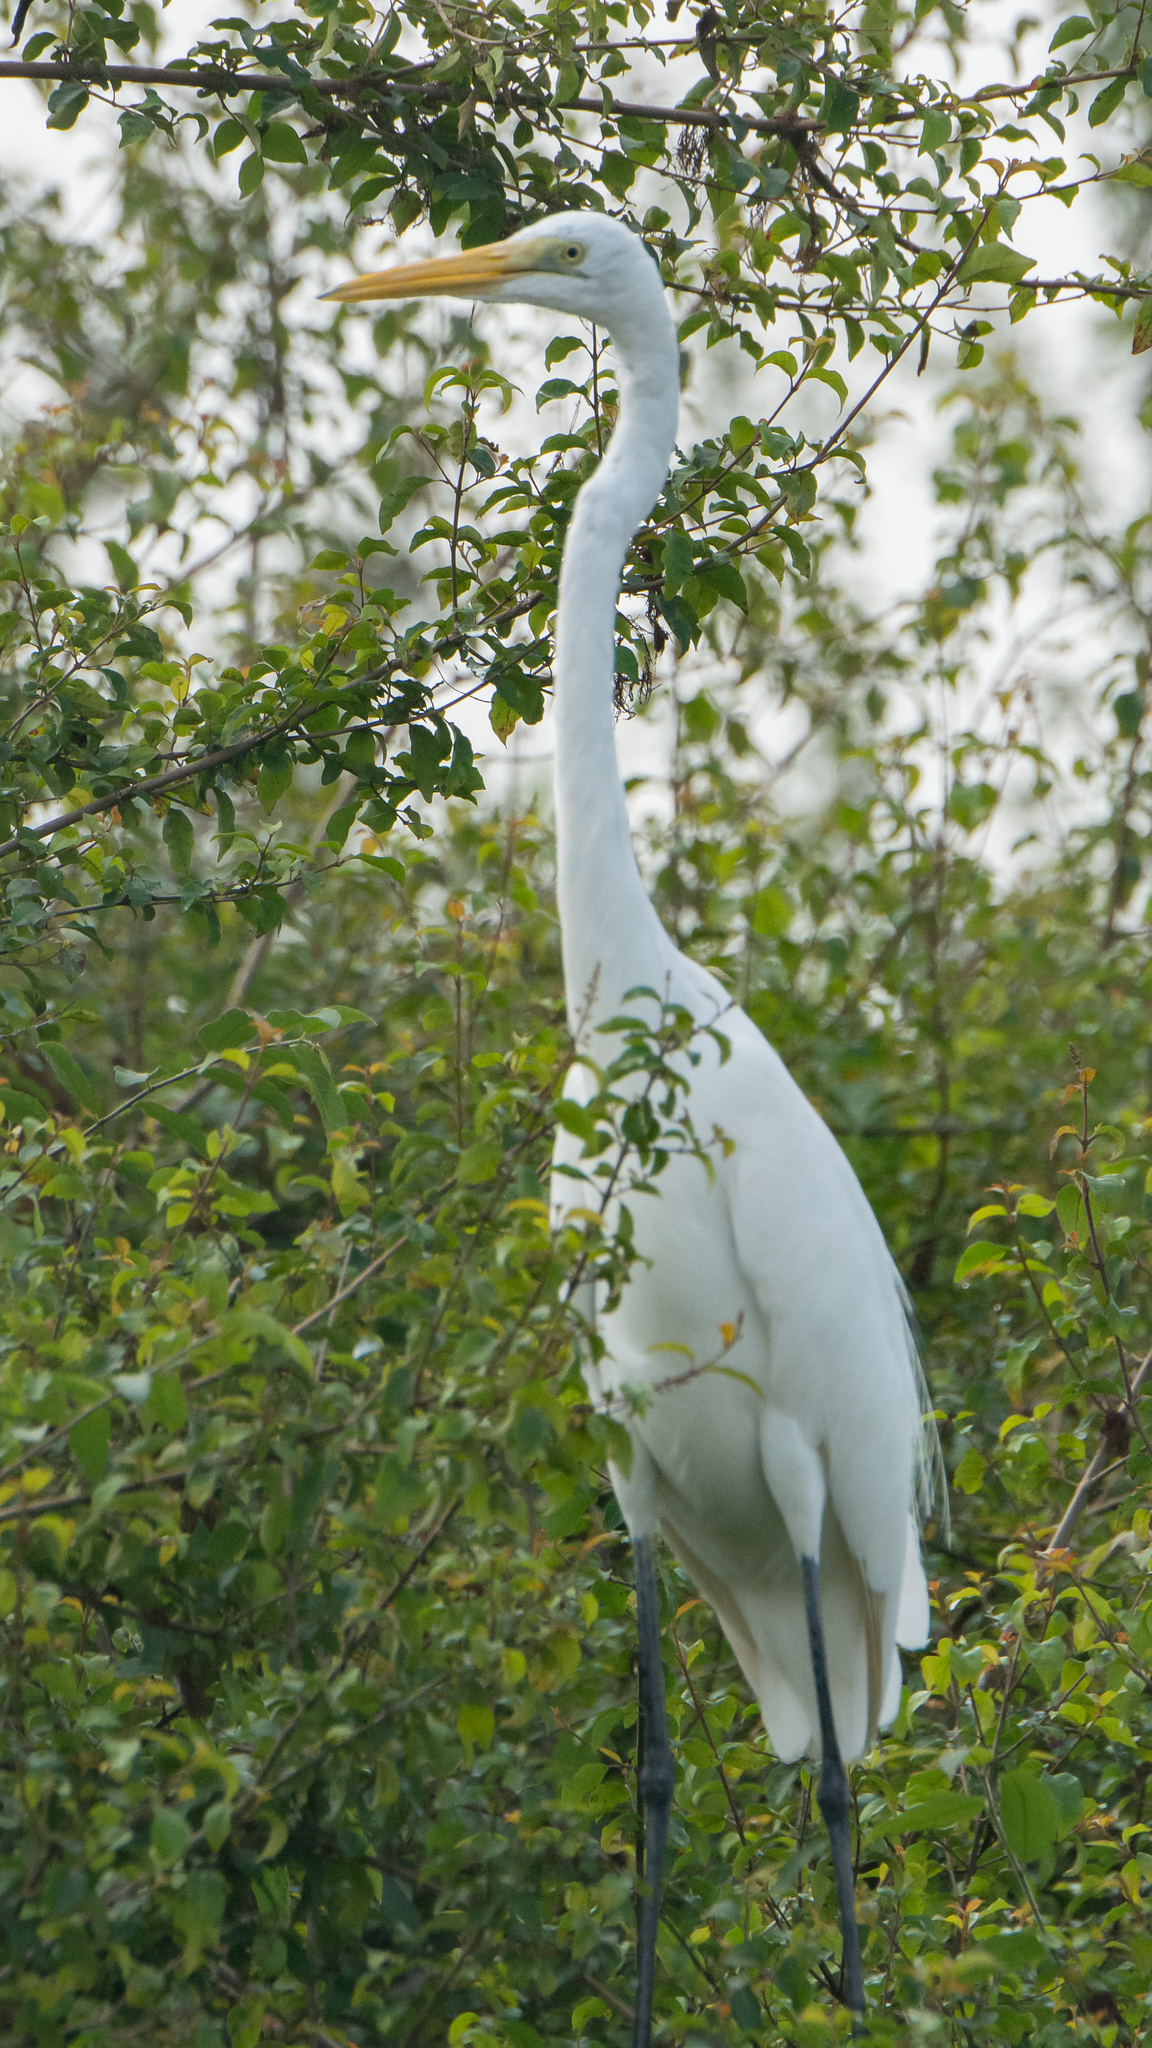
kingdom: Animalia
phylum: Chordata
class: Aves
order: Pelecaniformes
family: Ardeidae
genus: Ardea
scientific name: Ardea alba
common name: Great egret
